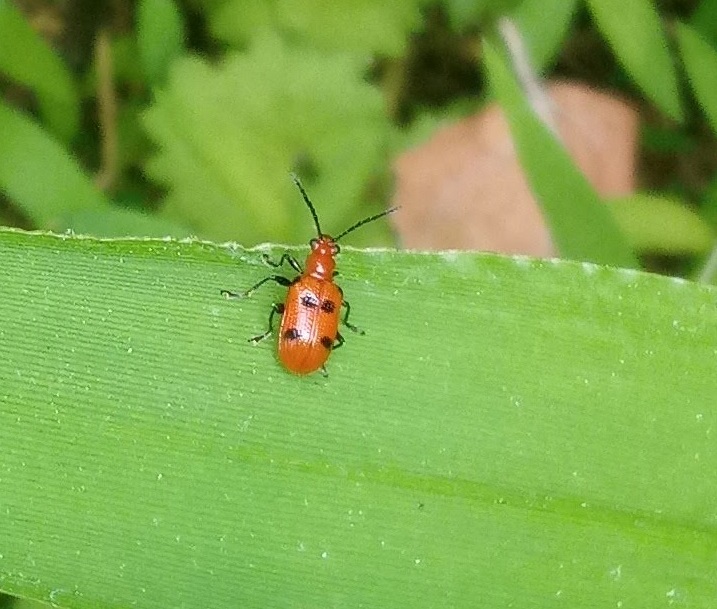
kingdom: Animalia
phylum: Arthropoda
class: Insecta
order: Coleoptera
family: Chrysomelidae
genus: Neolema
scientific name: Neolema sexpunctata
